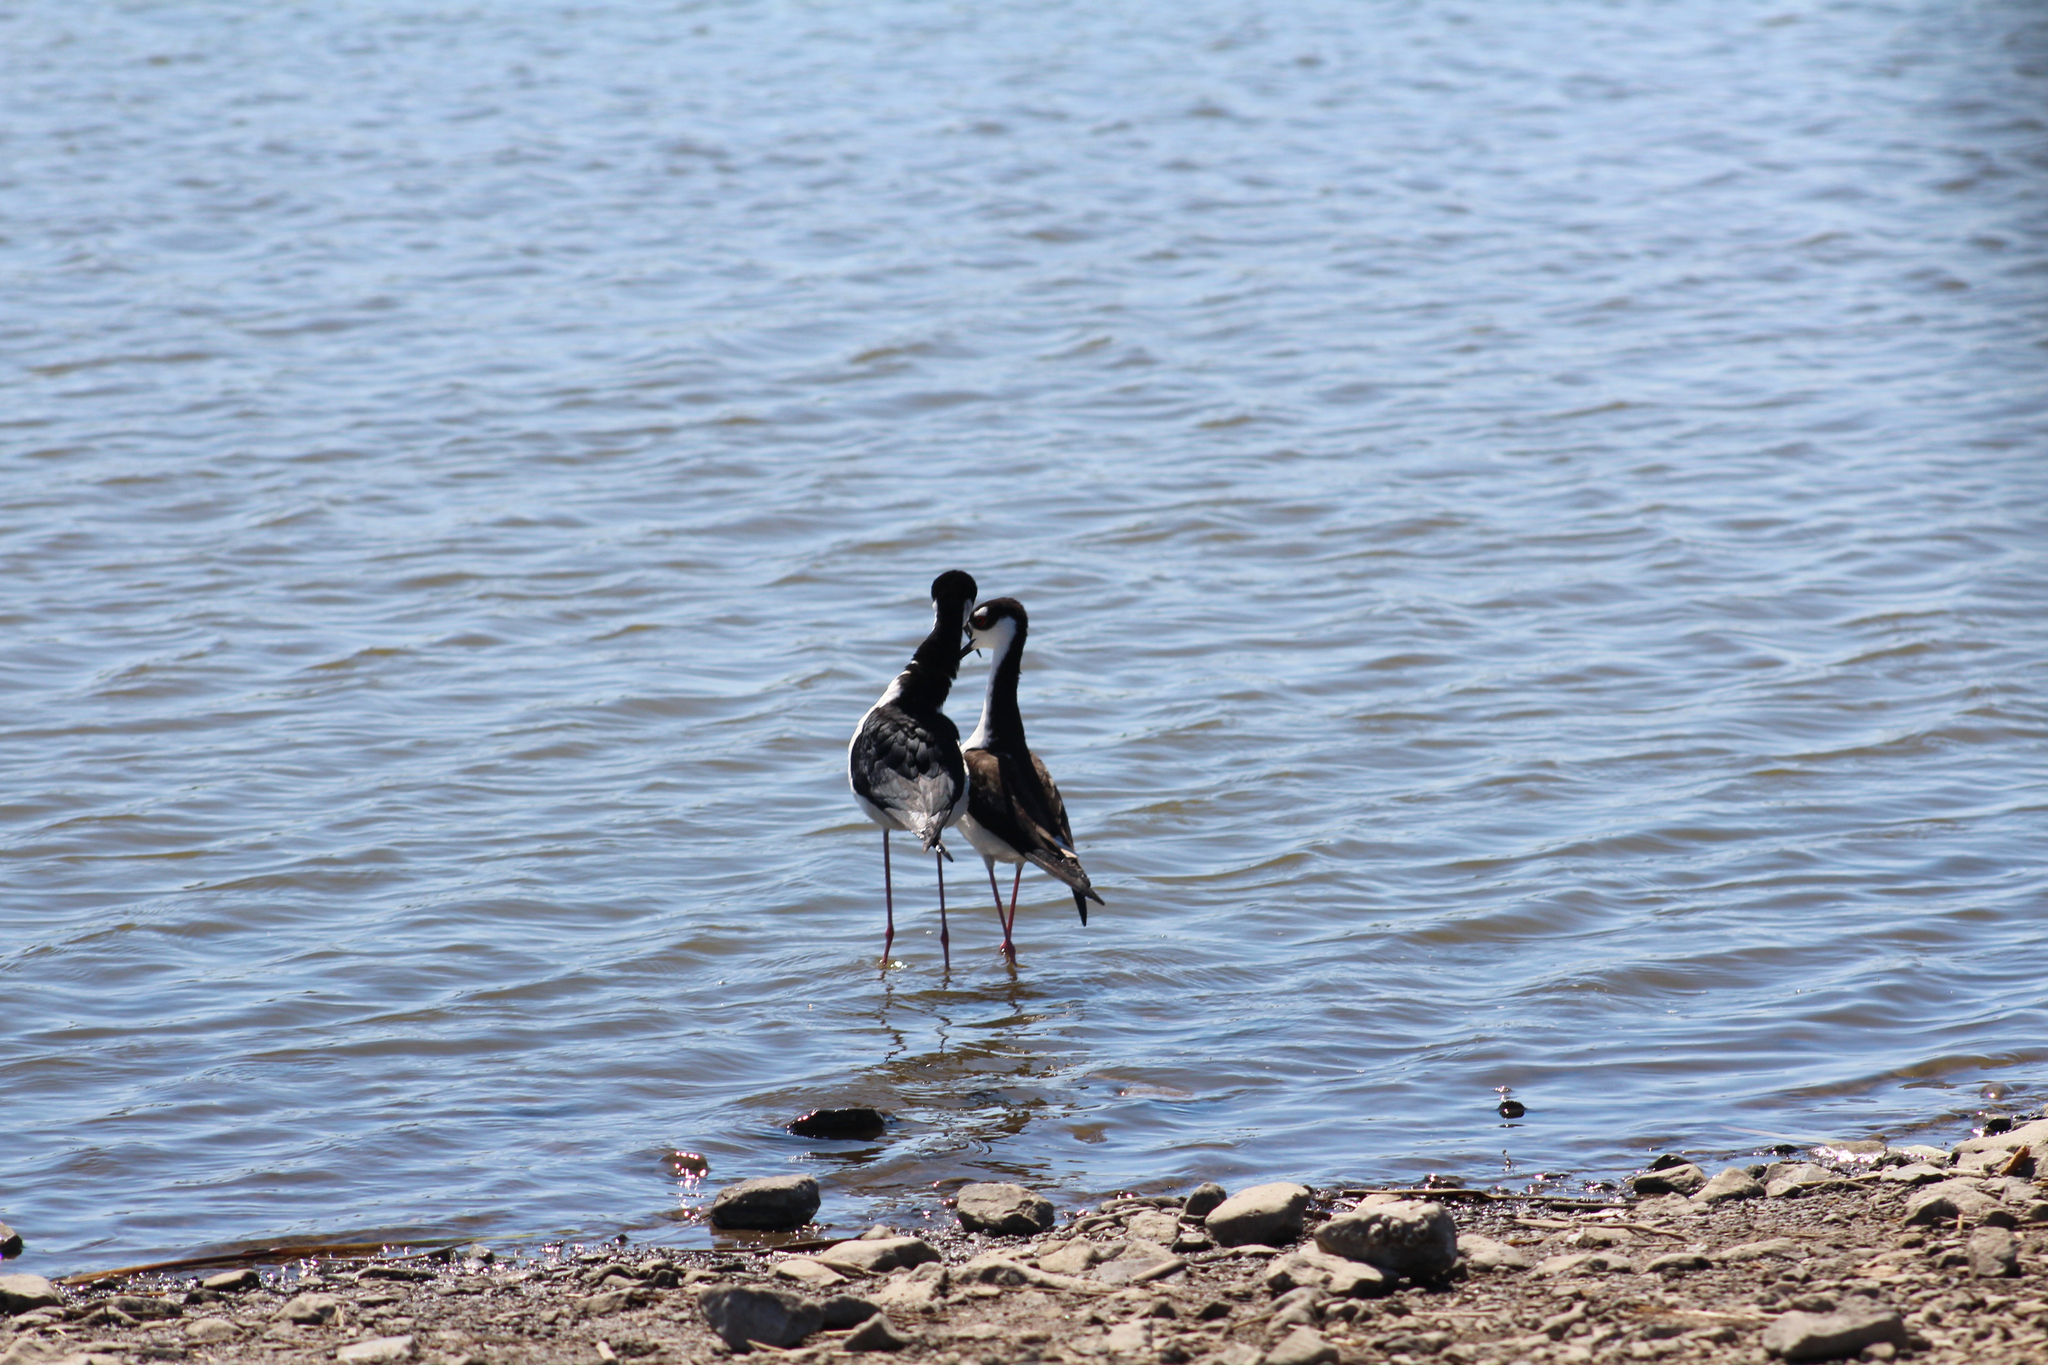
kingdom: Animalia
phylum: Chordata
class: Aves
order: Charadriiformes
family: Recurvirostridae
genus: Himantopus
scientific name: Himantopus mexicanus
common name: Black-necked stilt
